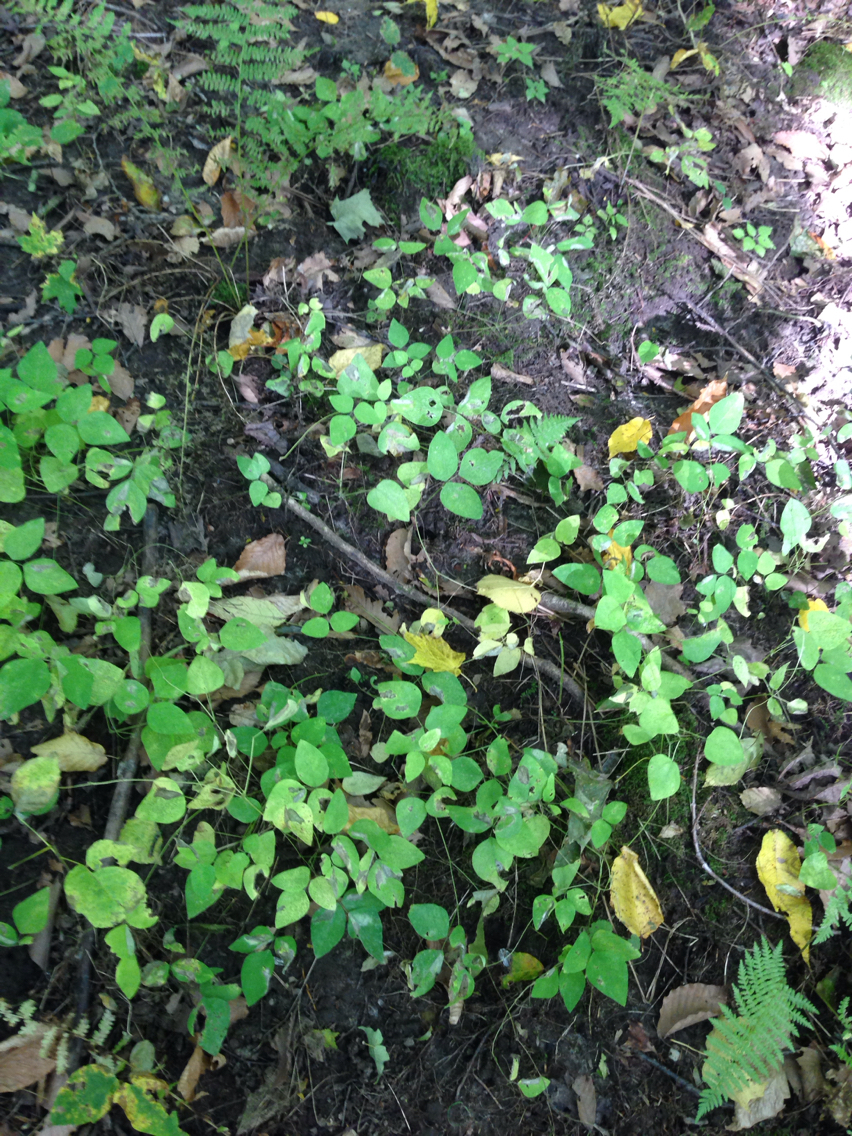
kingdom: Plantae
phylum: Tracheophyta
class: Magnoliopsida
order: Fabales
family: Fabaceae
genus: Amphicarpaea
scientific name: Amphicarpaea bracteata
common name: American hog peanut
